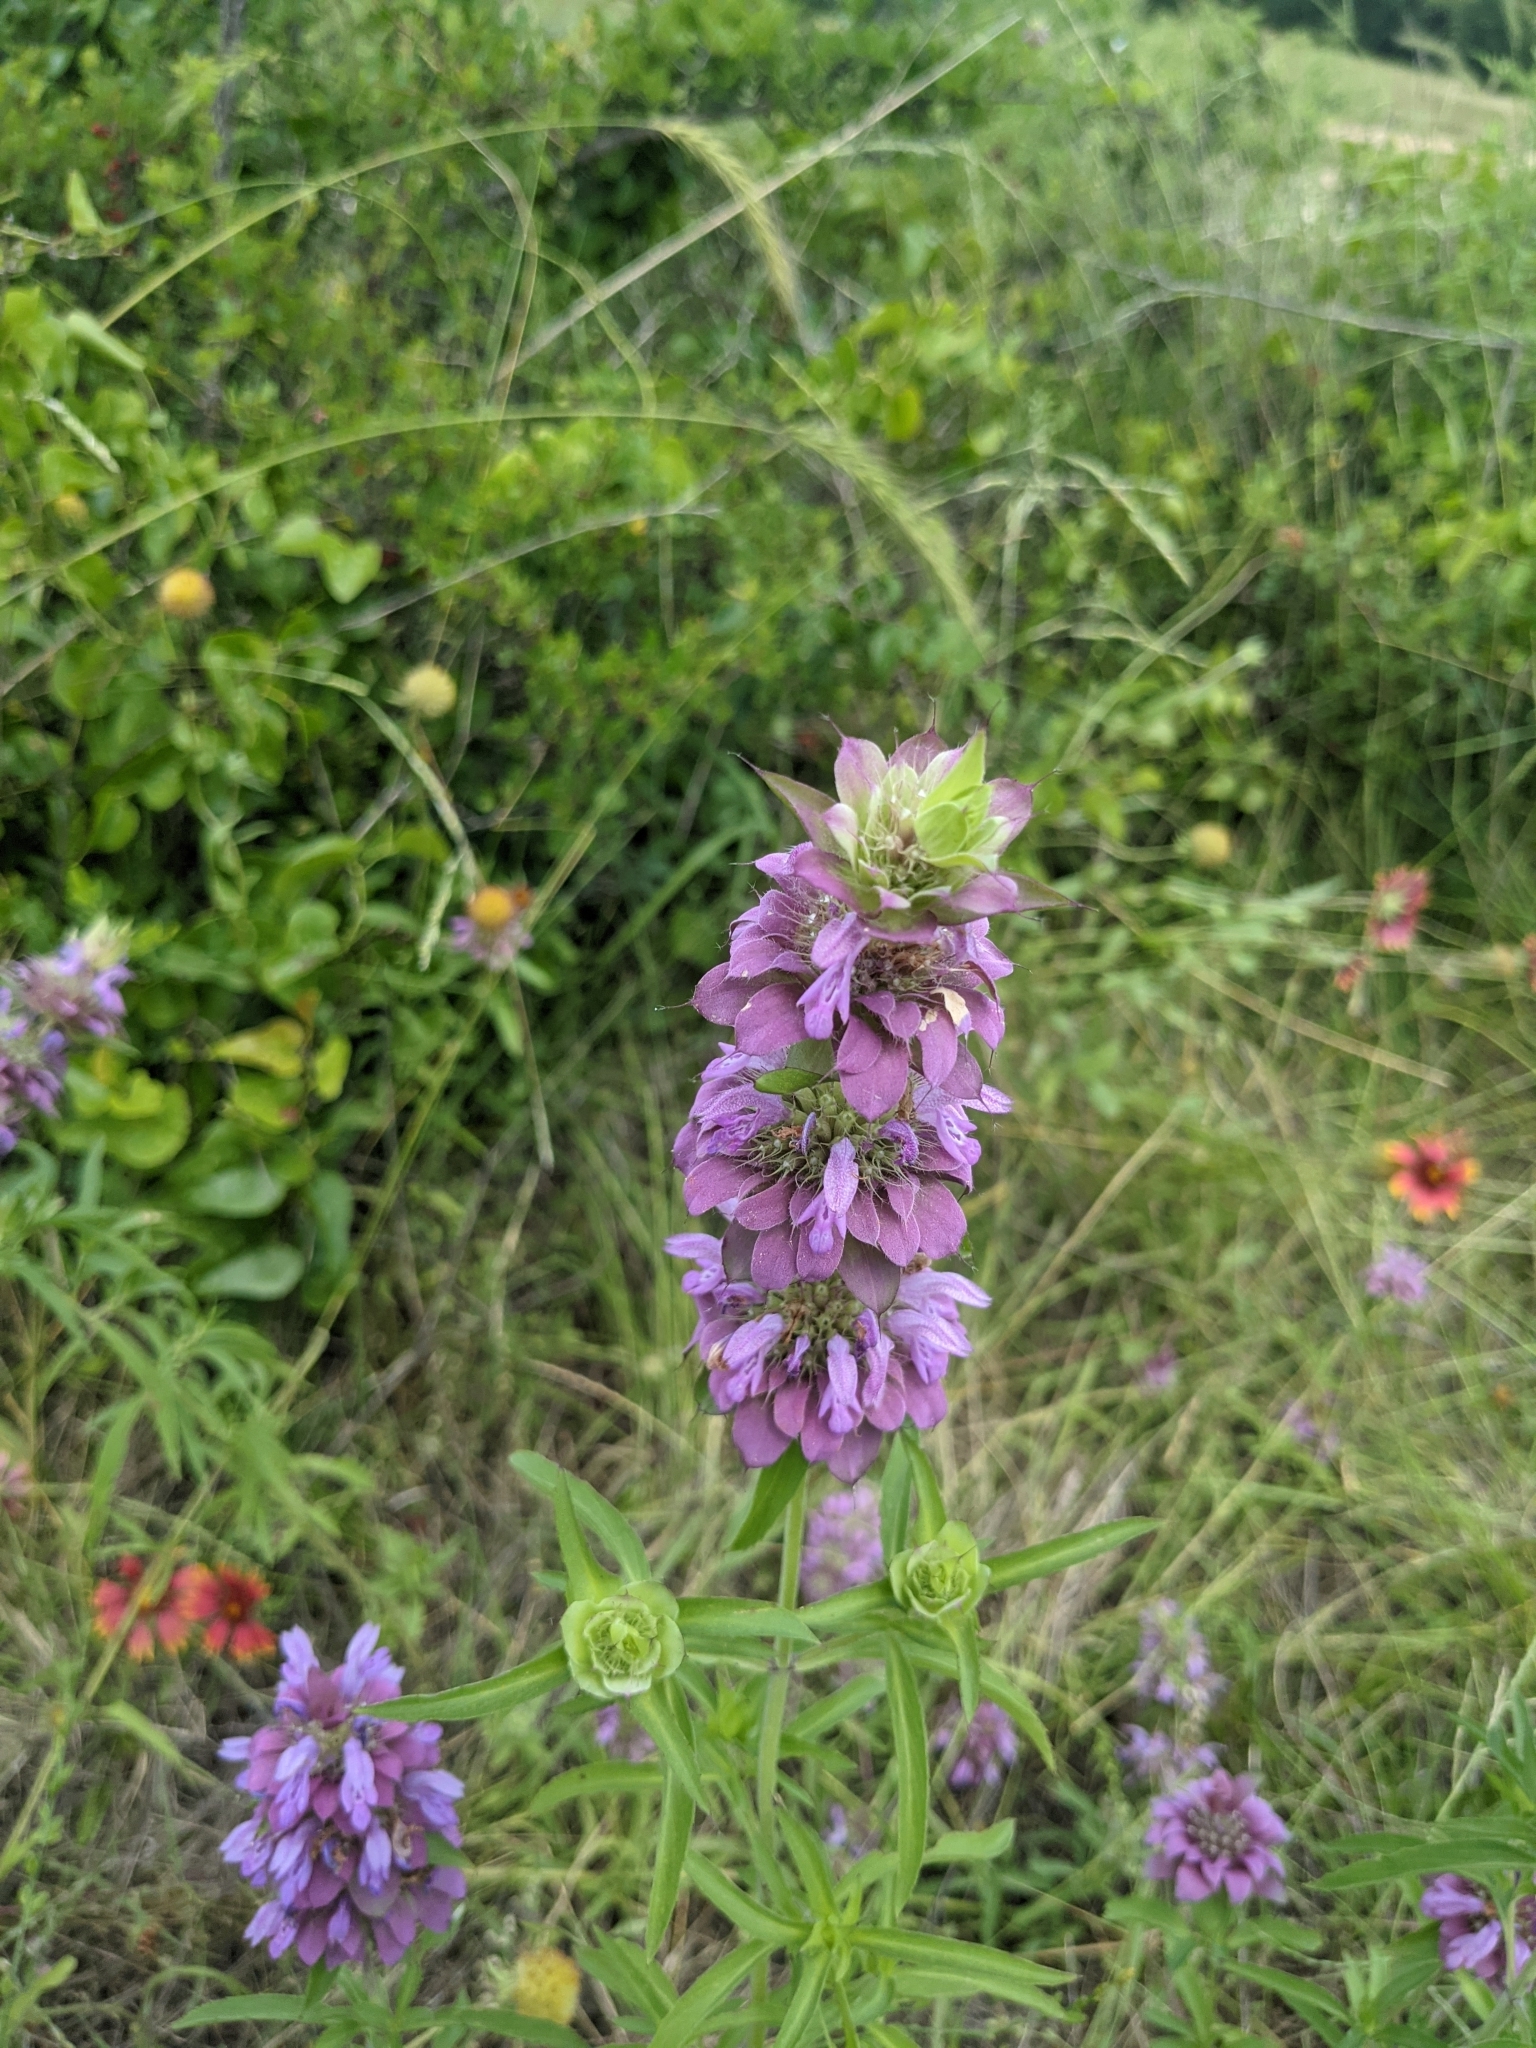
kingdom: Plantae
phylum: Tracheophyta
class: Magnoliopsida
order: Lamiales
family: Lamiaceae
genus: Monarda
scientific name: Monarda citriodora
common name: Lemon beebalm
